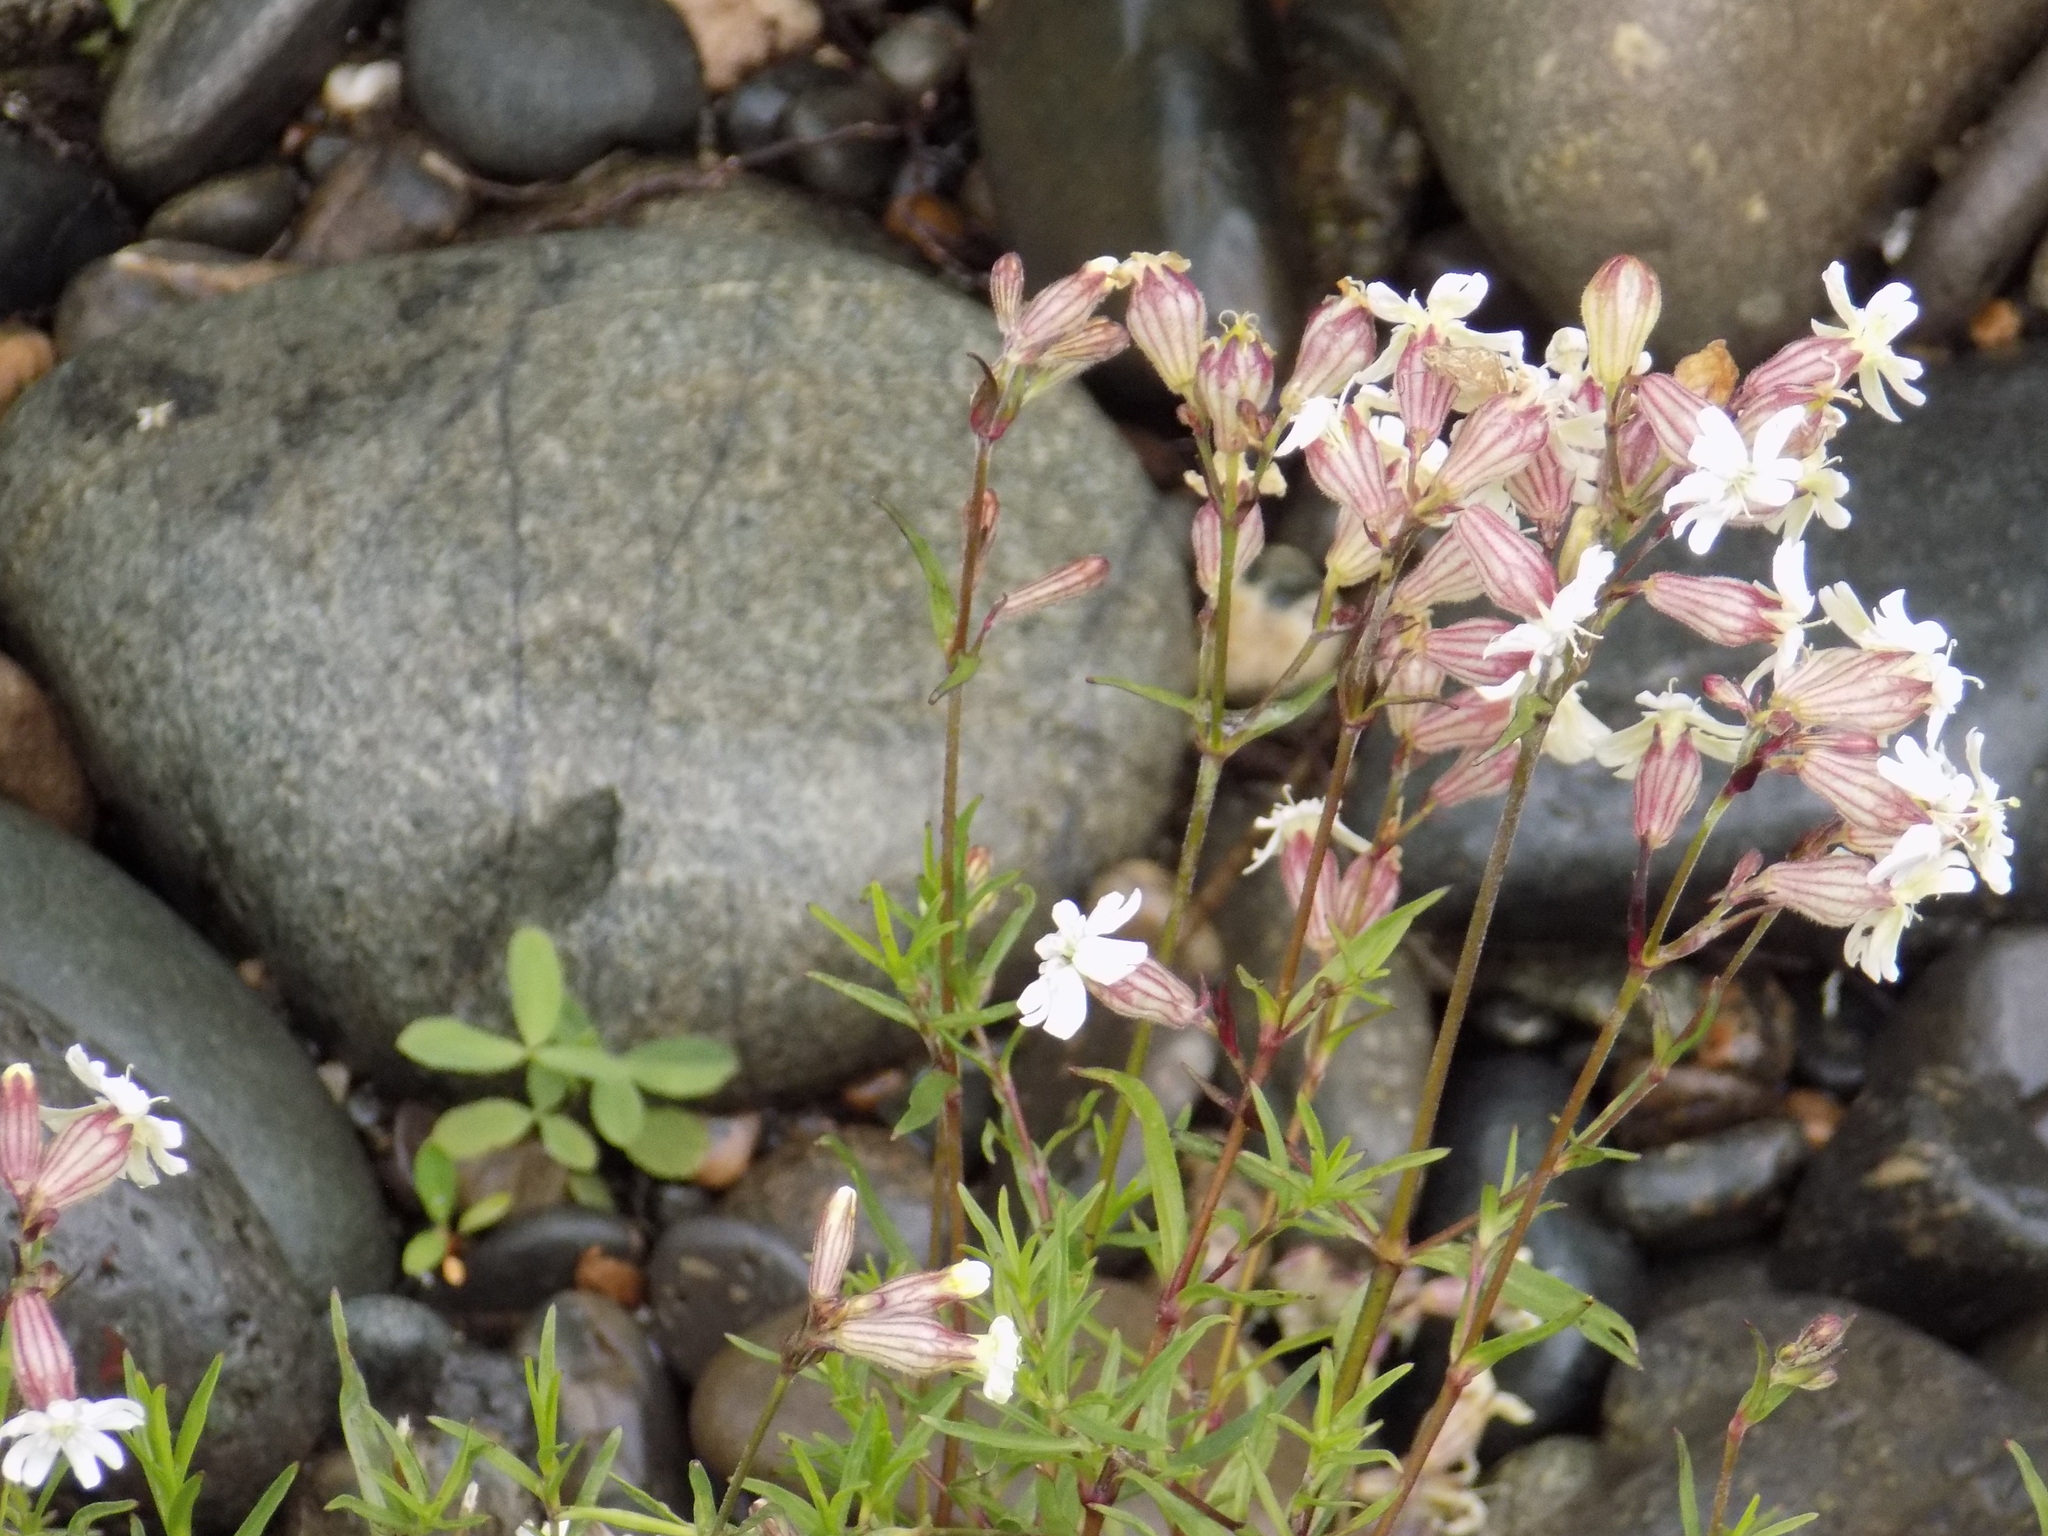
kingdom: Plantae
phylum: Tracheophyta
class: Magnoliopsida
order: Caryophyllales
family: Caryophyllaceae
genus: Silene
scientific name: Silene amoena
